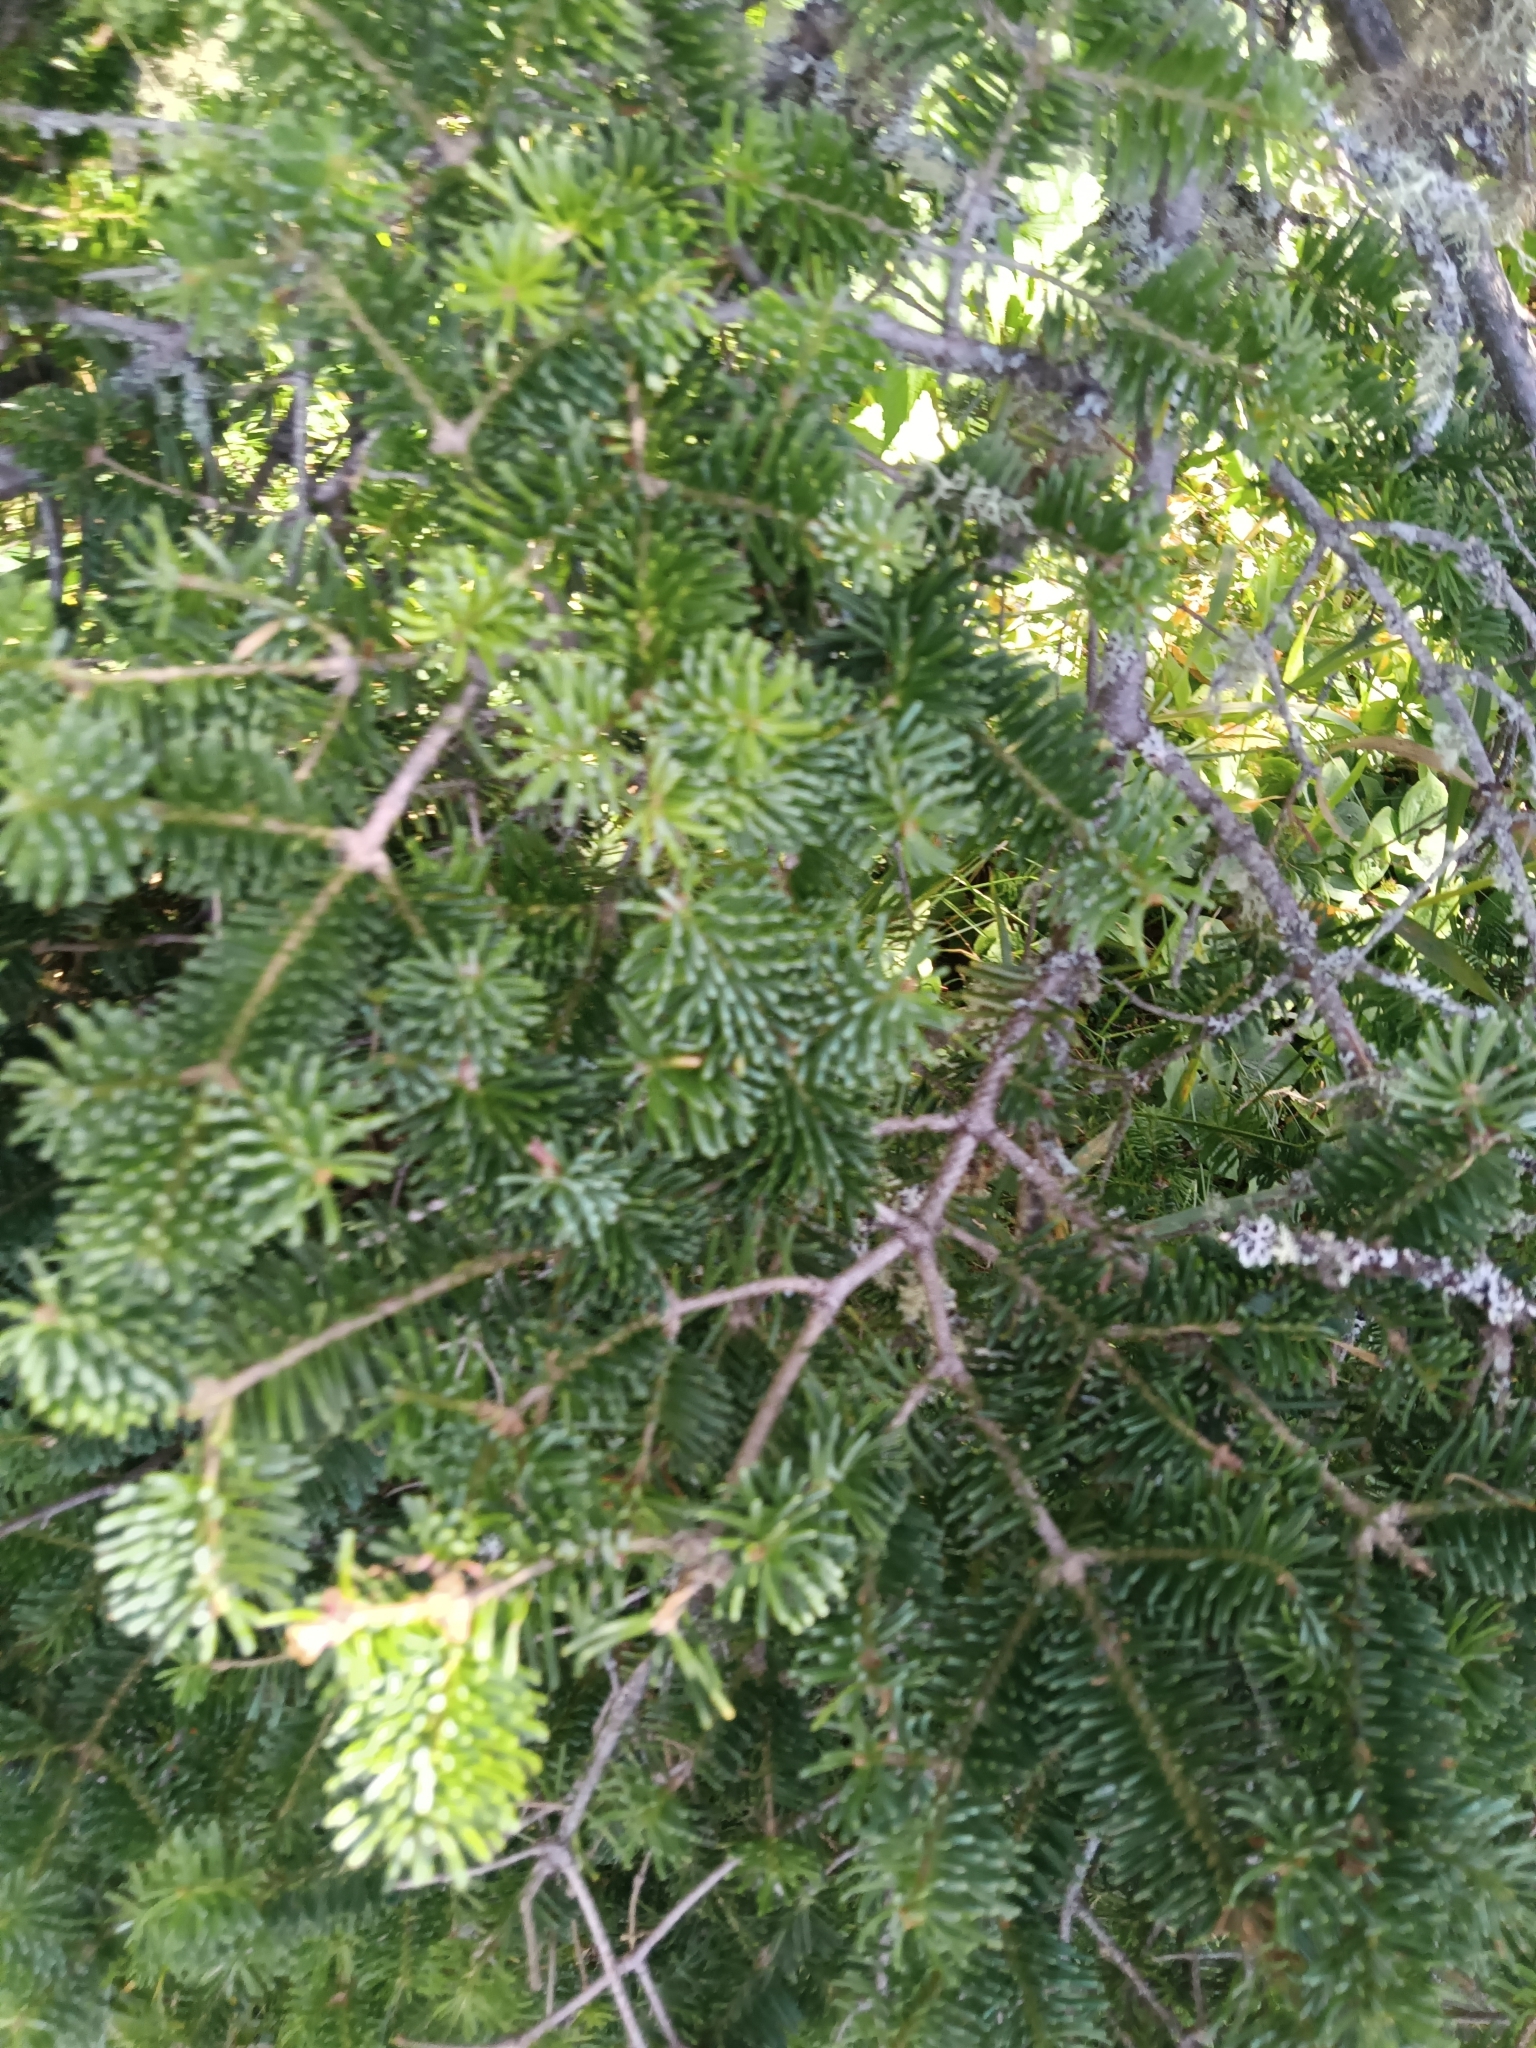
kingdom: Plantae
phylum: Tracheophyta
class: Pinopsida
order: Pinales
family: Pinaceae
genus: Abies
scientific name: Abies balsamea
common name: Balsam fir
